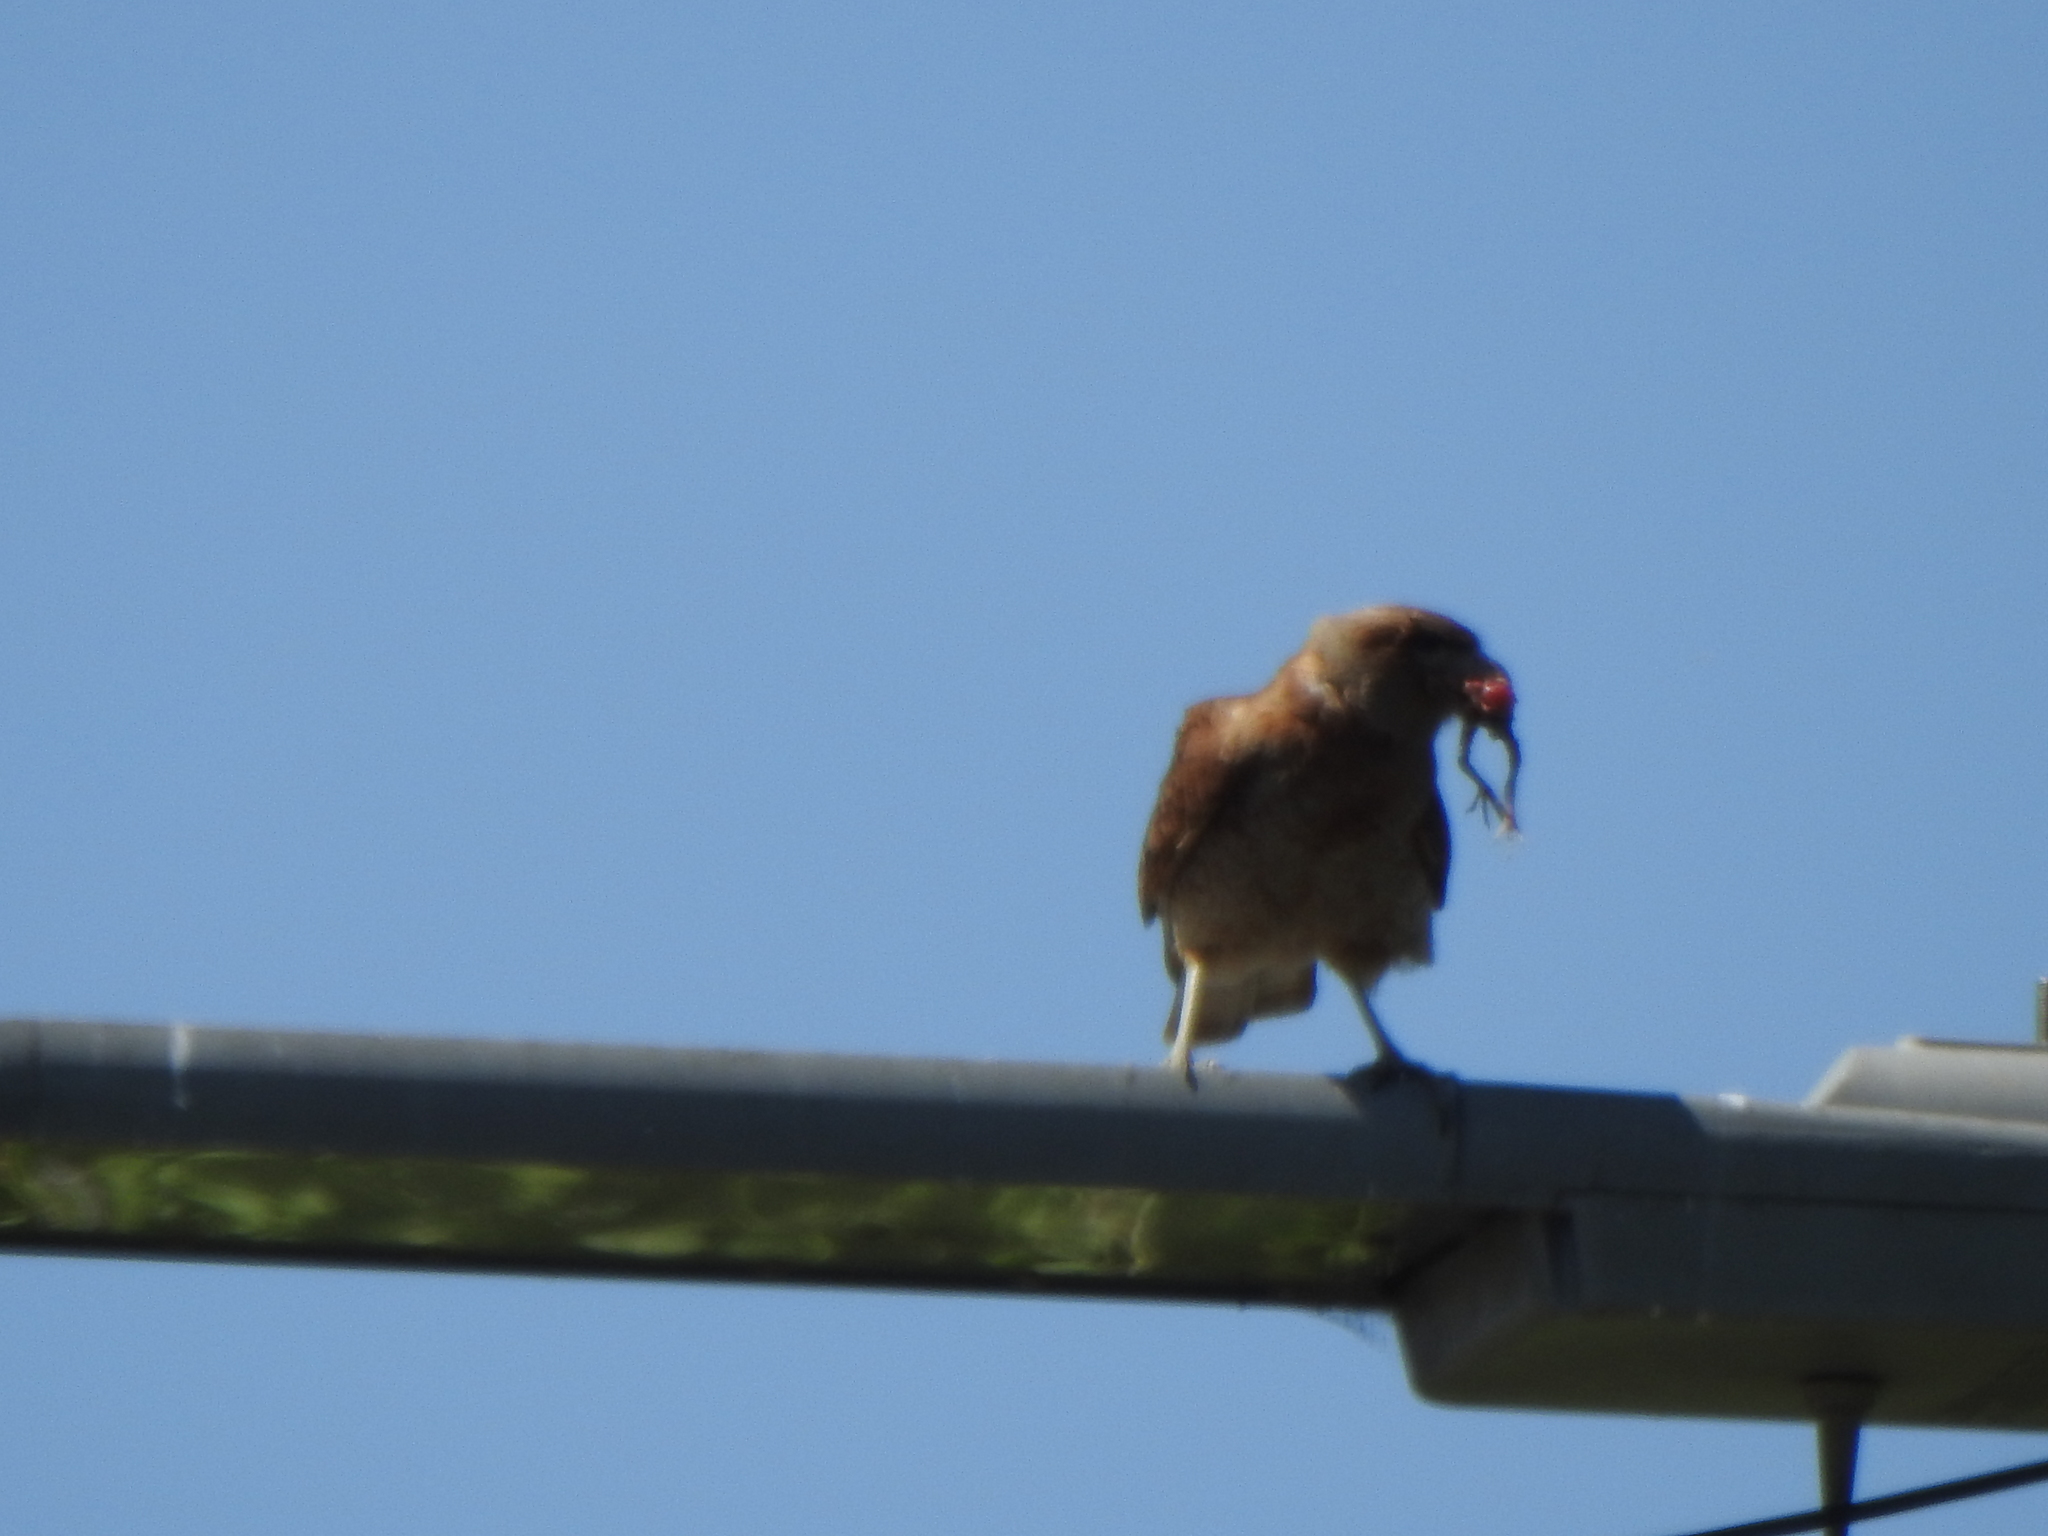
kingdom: Animalia
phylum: Chordata
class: Aves
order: Falconiformes
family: Falconidae
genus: Daptrius
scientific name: Daptrius
